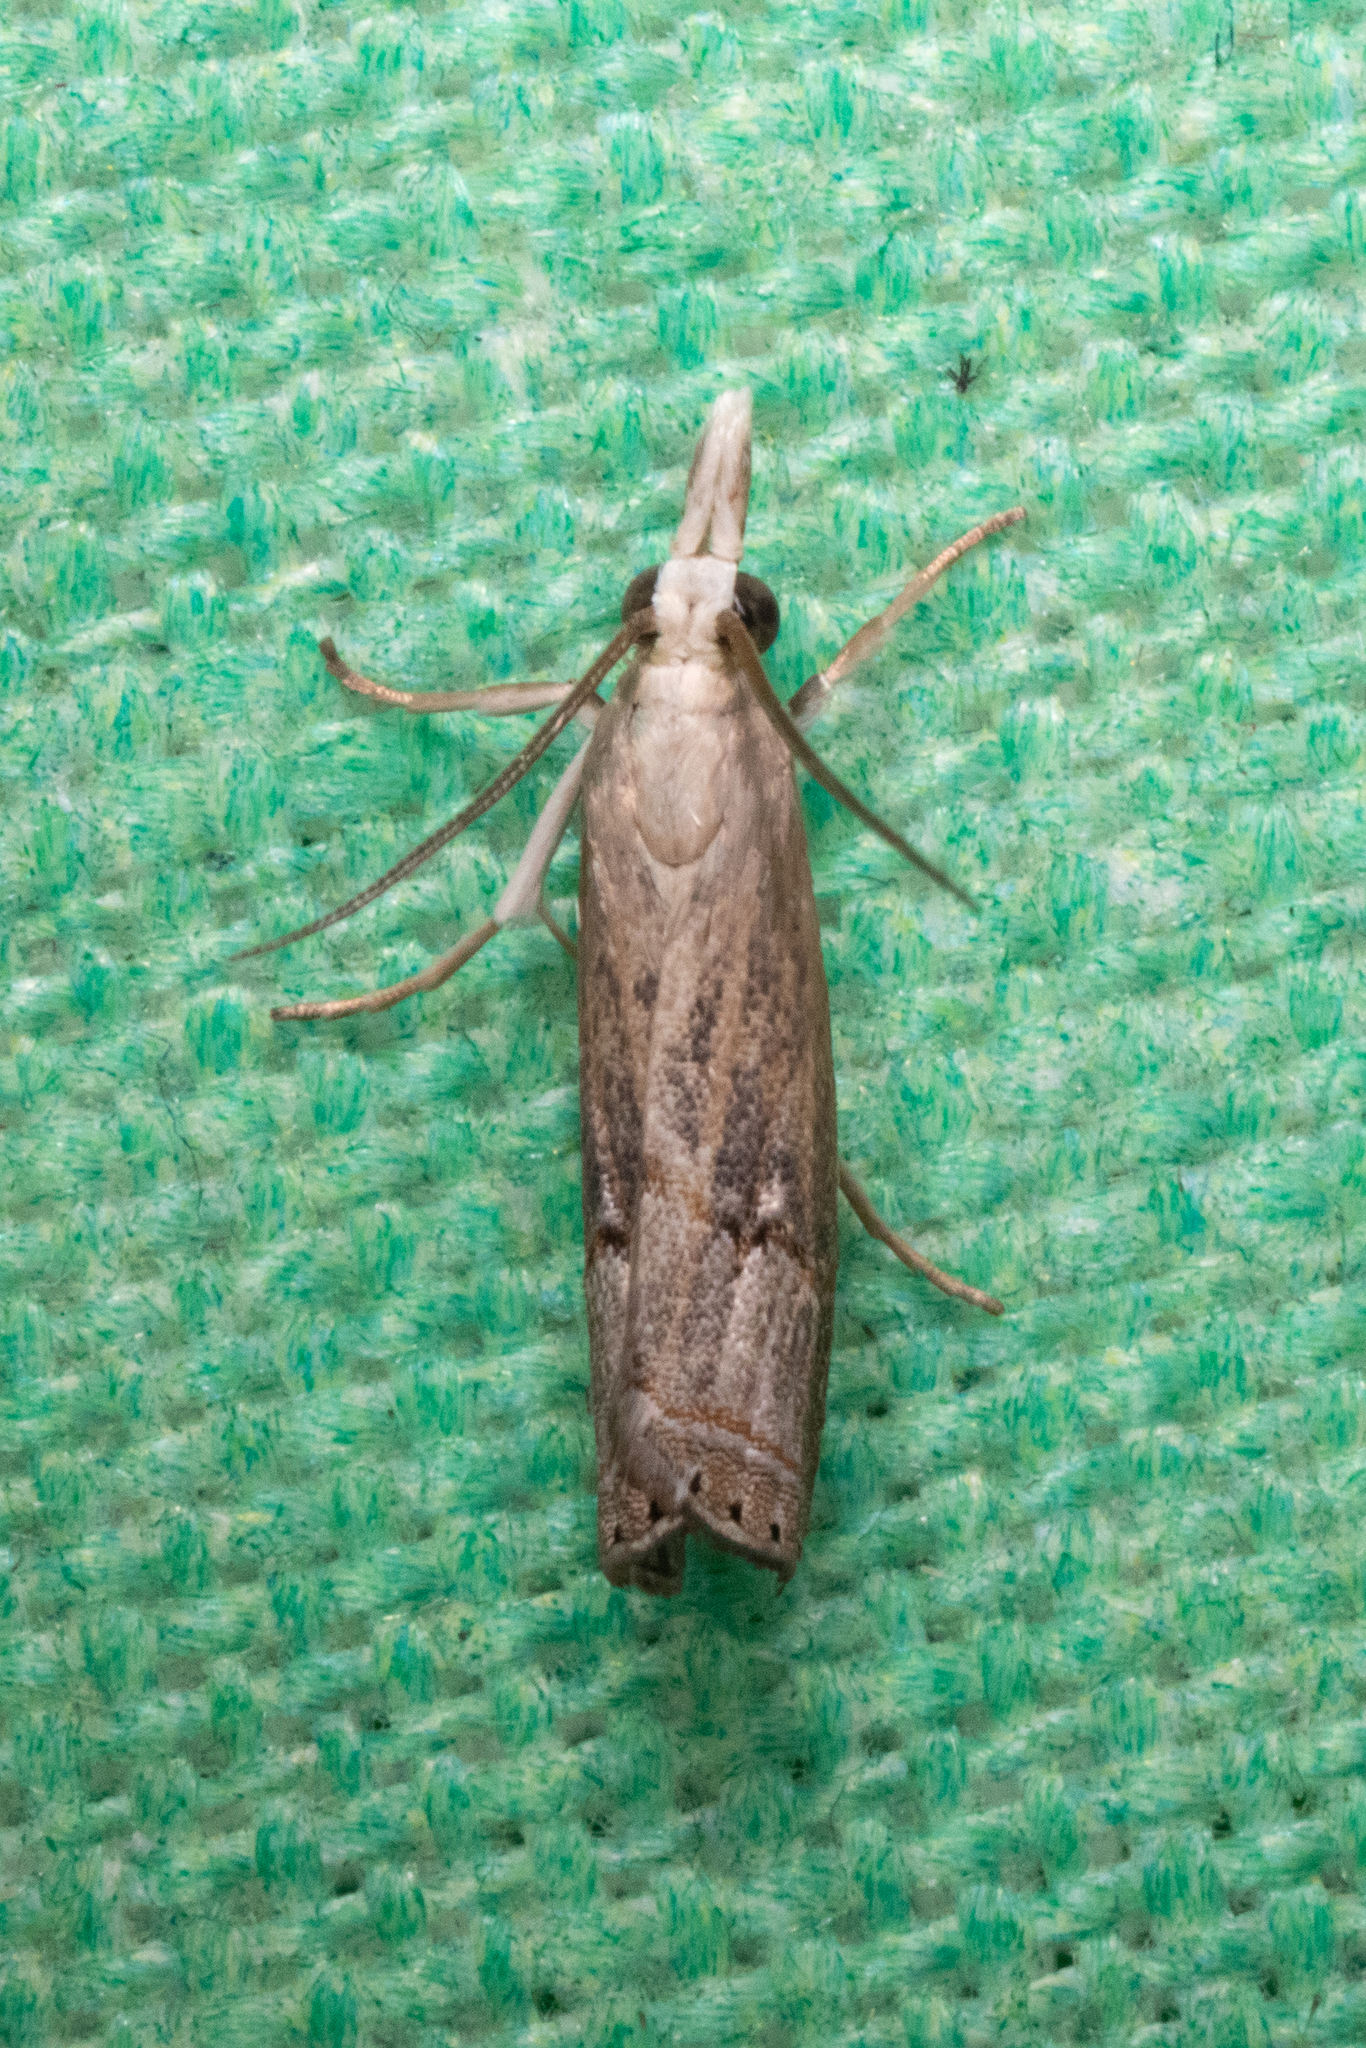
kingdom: Animalia
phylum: Arthropoda
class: Insecta
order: Lepidoptera
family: Crambidae
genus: Parapediasia
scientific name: Parapediasia teterellus
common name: Bluegrass webworm moth
